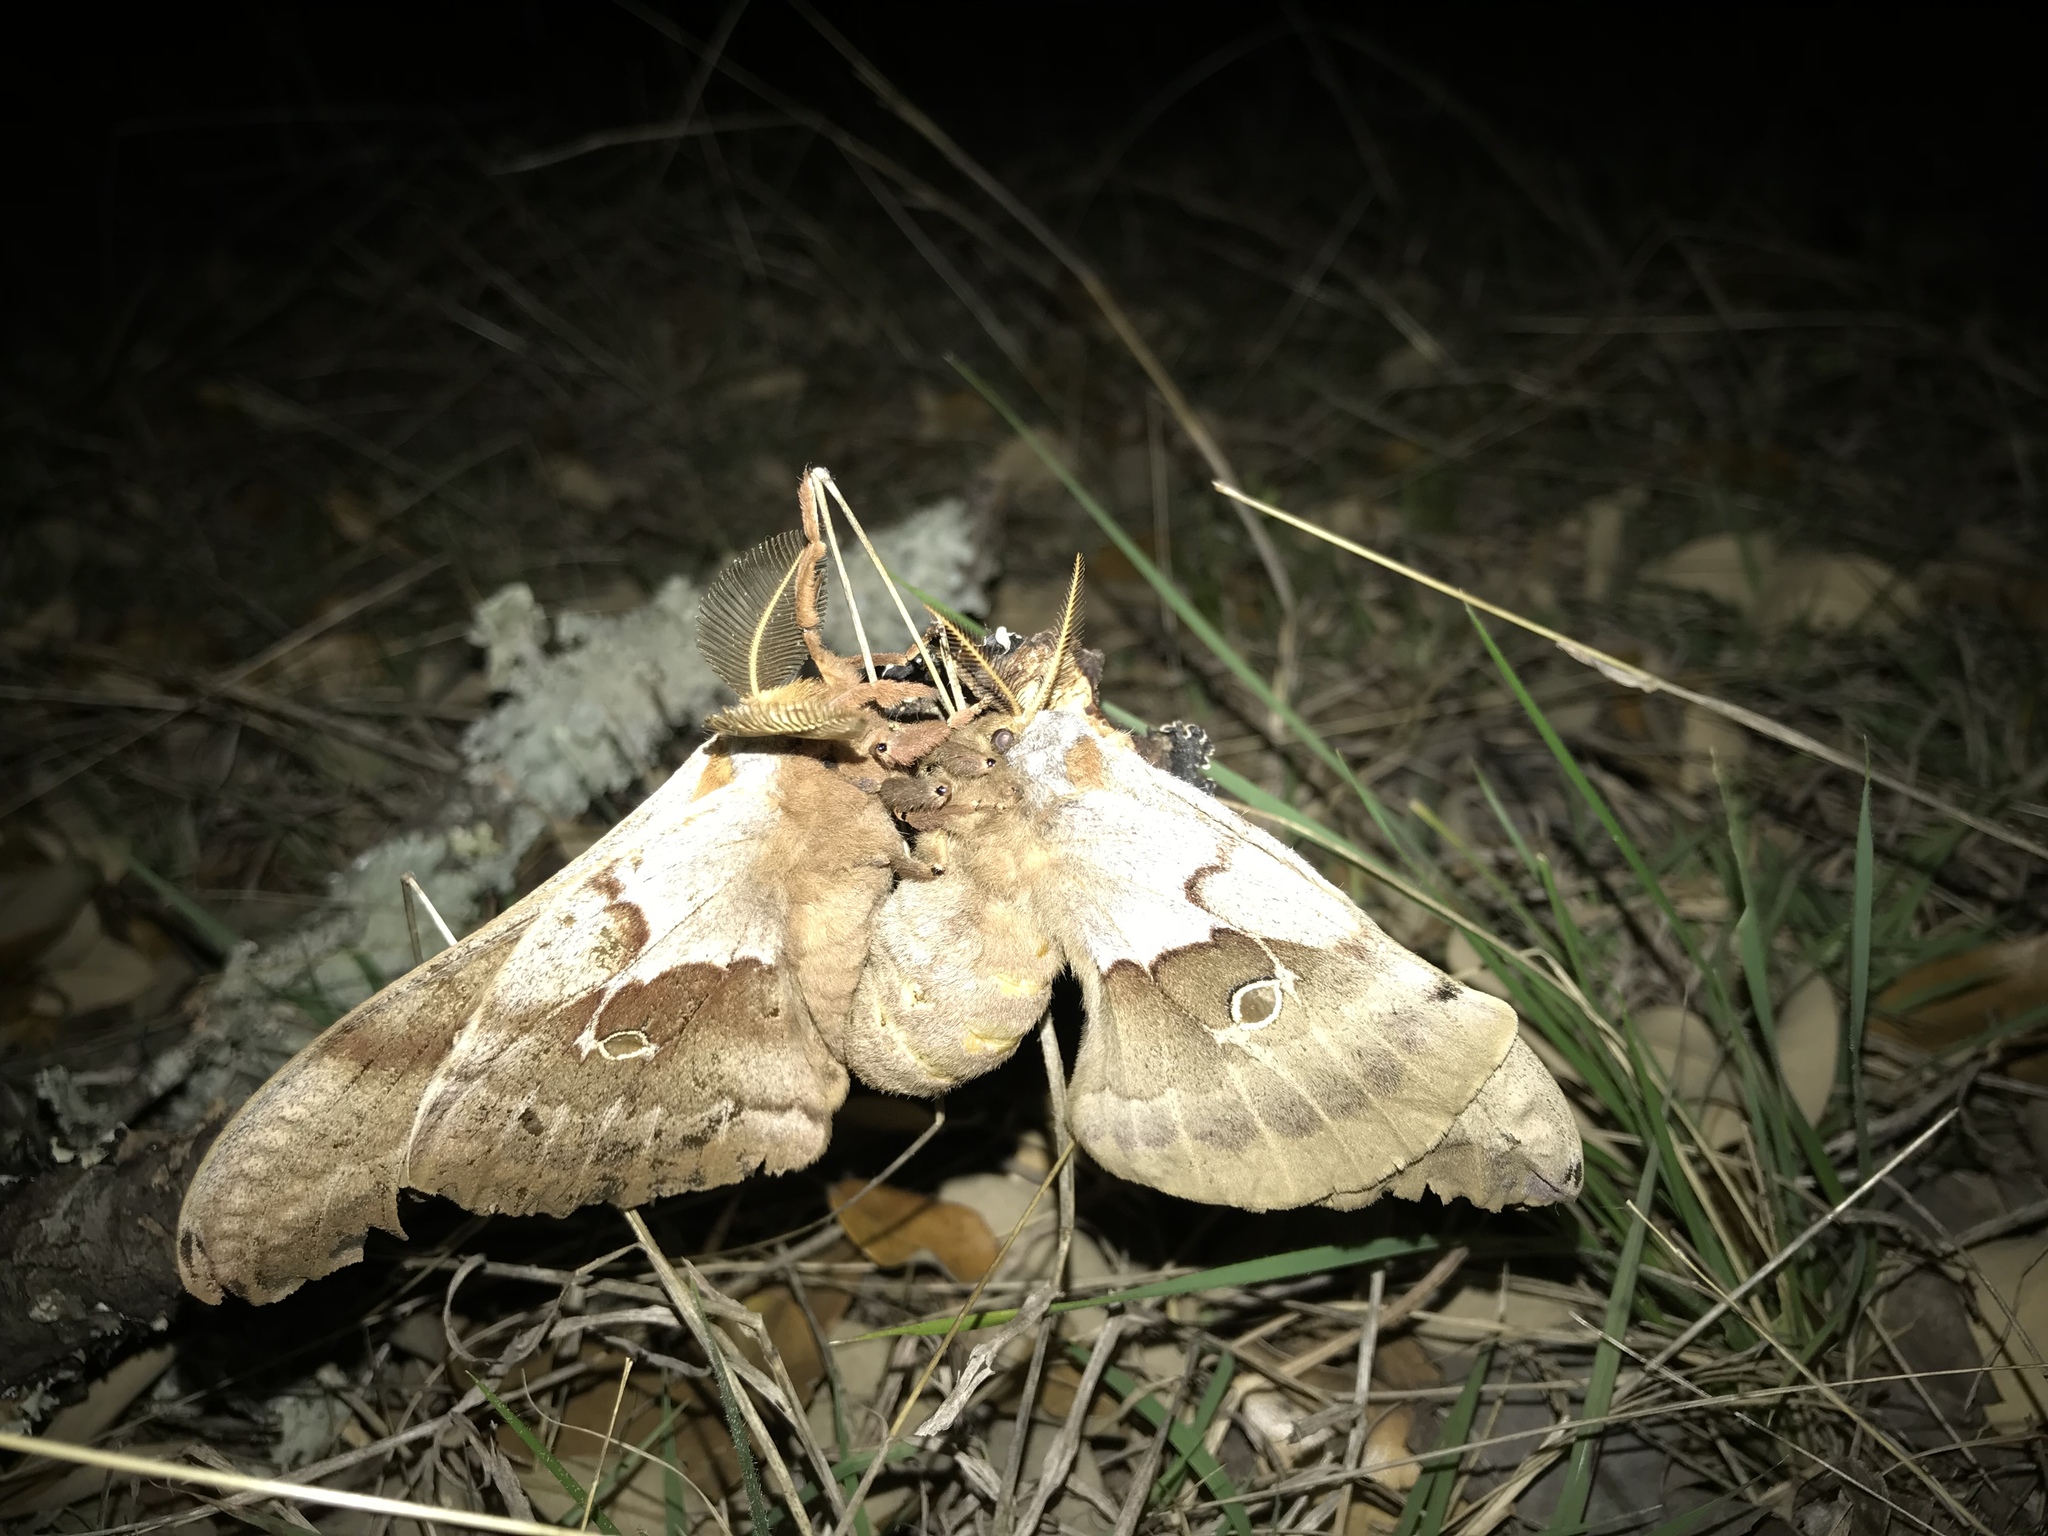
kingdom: Animalia
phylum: Arthropoda
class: Insecta
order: Lepidoptera
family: Saturniidae
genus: Antheraea
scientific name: Antheraea polyphemus
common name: Polyphemus moth
